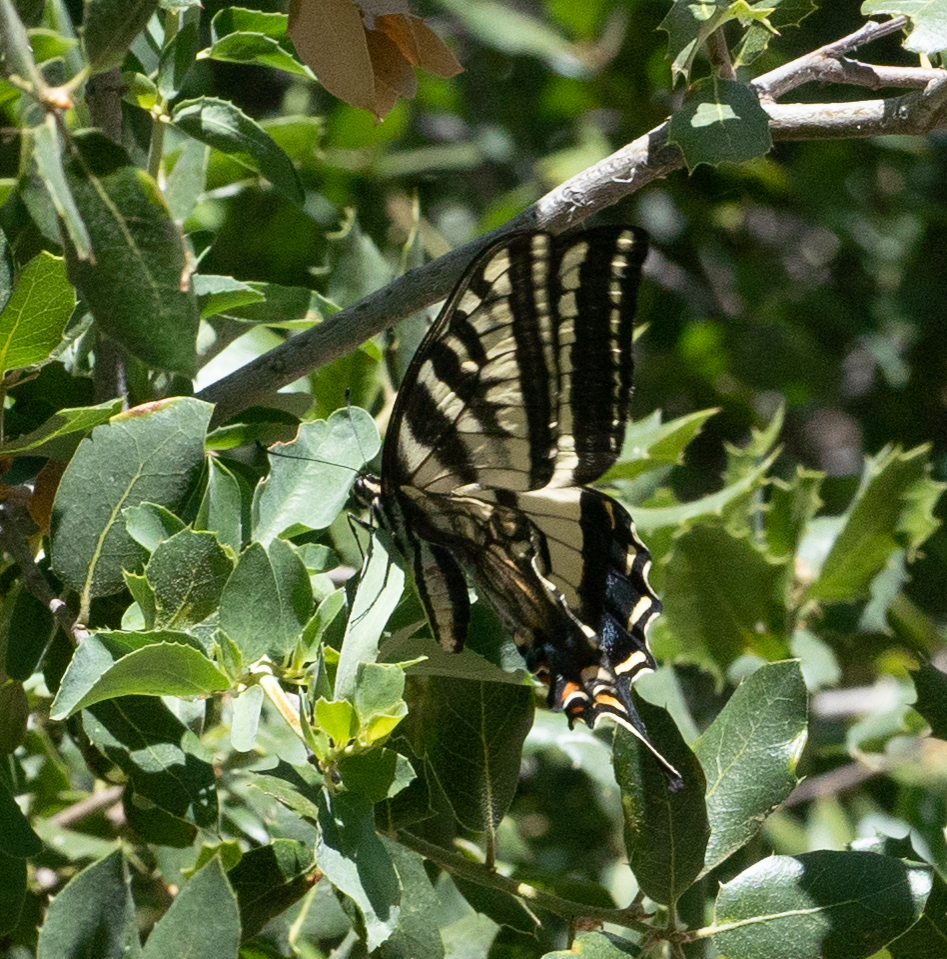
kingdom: Animalia
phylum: Arthropoda
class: Insecta
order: Lepidoptera
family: Papilionidae
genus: Papilio
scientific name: Papilio eurymedon
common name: Pale tiger swallowtail
